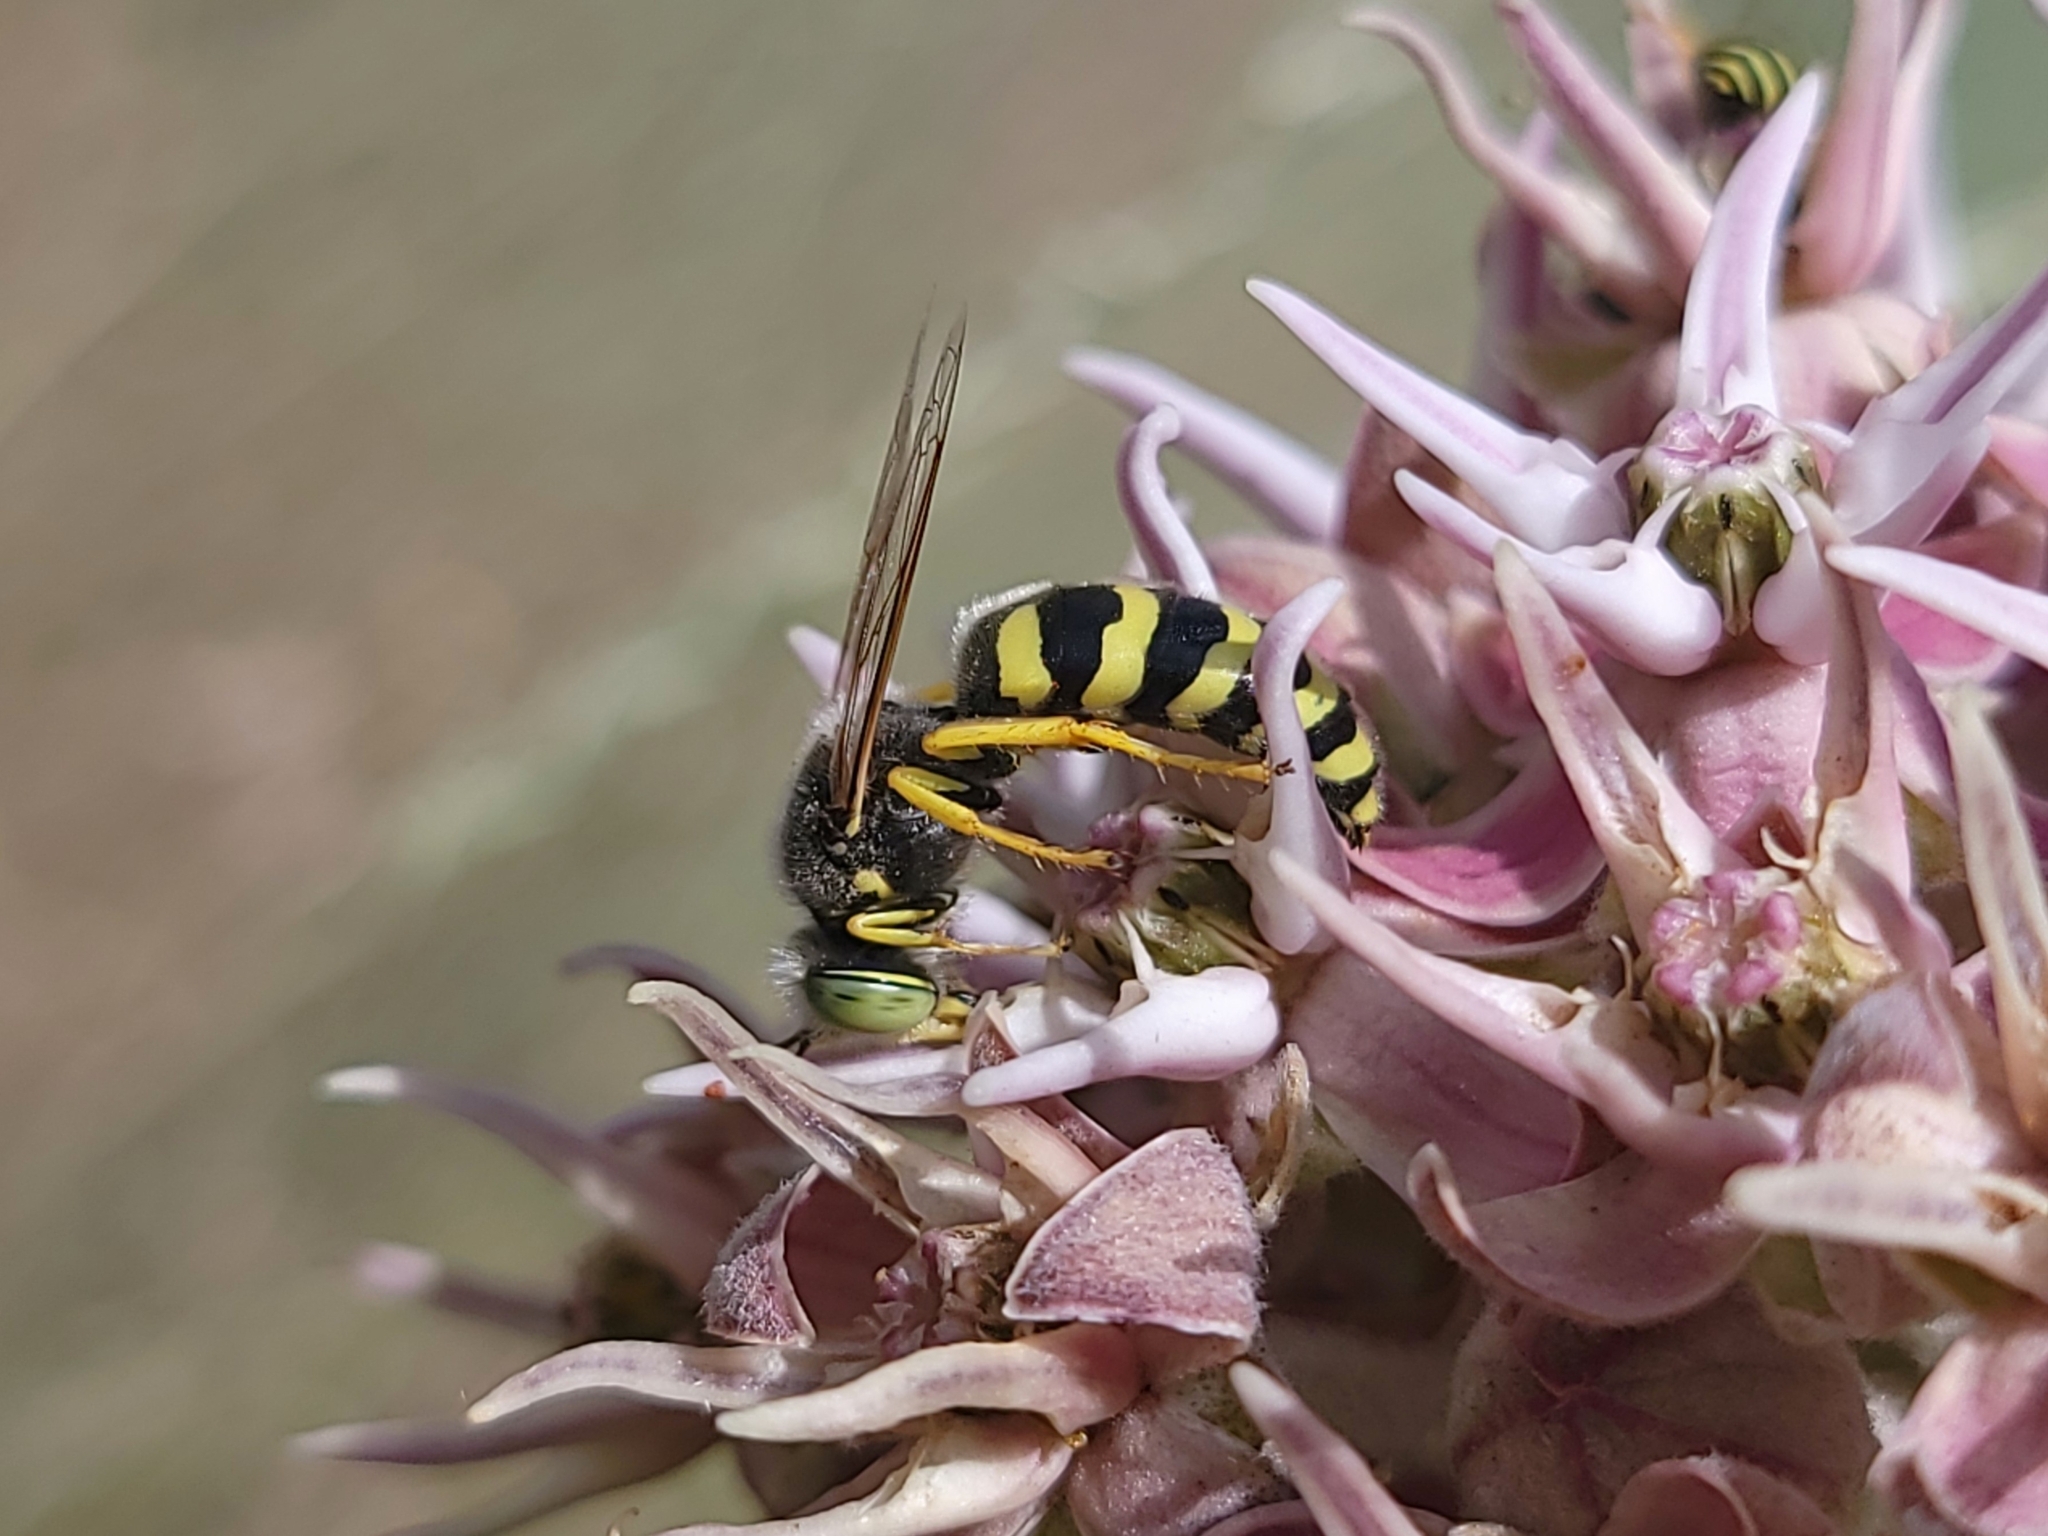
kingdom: Animalia
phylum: Arthropoda
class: Insecta
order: Hymenoptera
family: Crabronidae
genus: Bembix
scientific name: Bembix americana
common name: American sand wasp
